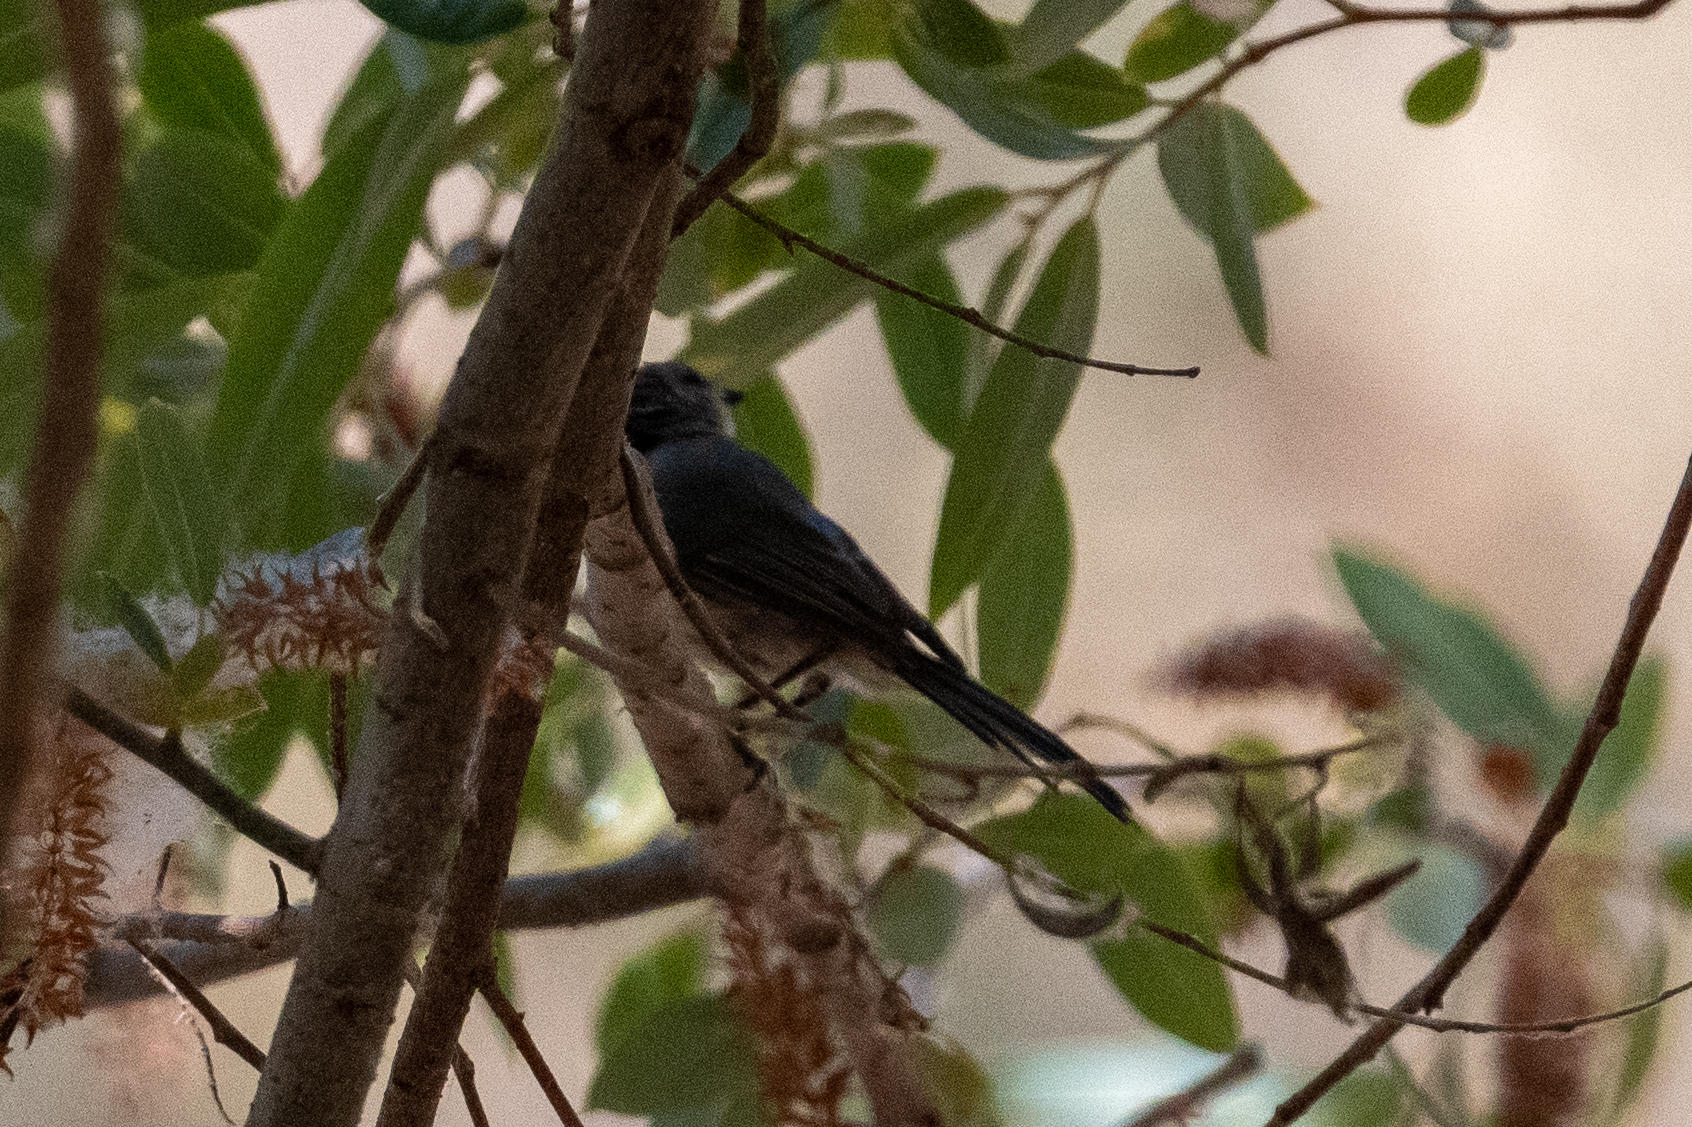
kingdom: Animalia
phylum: Chordata
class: Aves
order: Passeriformes
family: Aegithalidae
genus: Psaltriparus
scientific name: Psaltriparus minimus
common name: American bushtit
